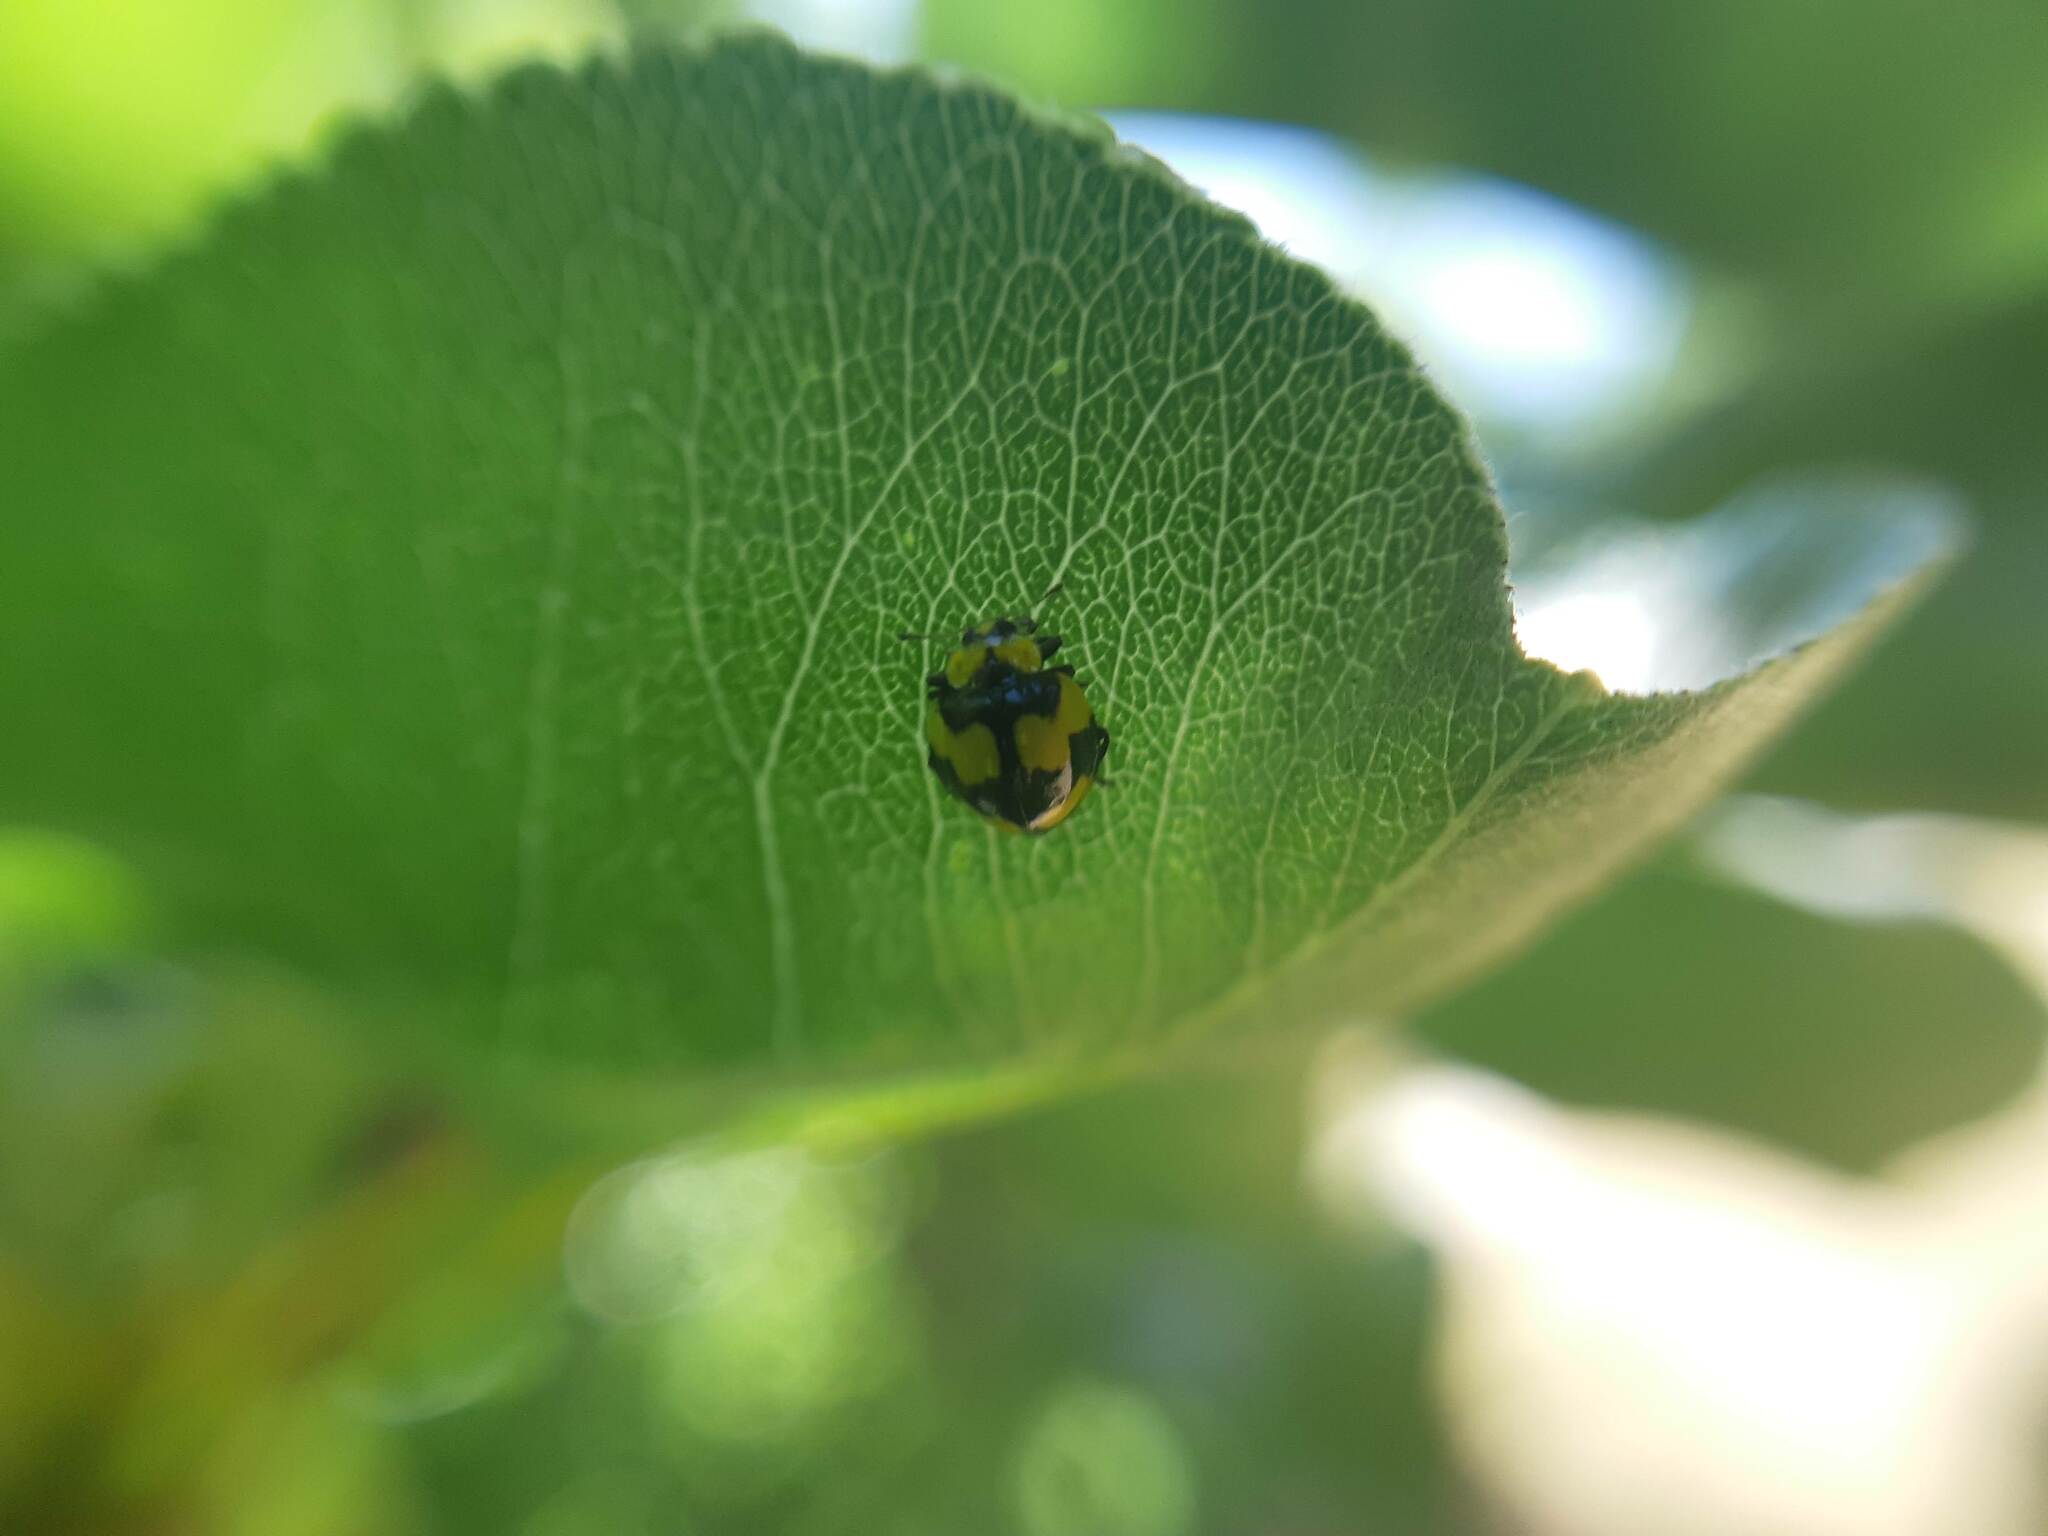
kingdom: Animalia
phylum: Arthropoda
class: Insecta
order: Coleoptera
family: Coccinellidae
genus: Illeis
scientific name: Illeis galbula
